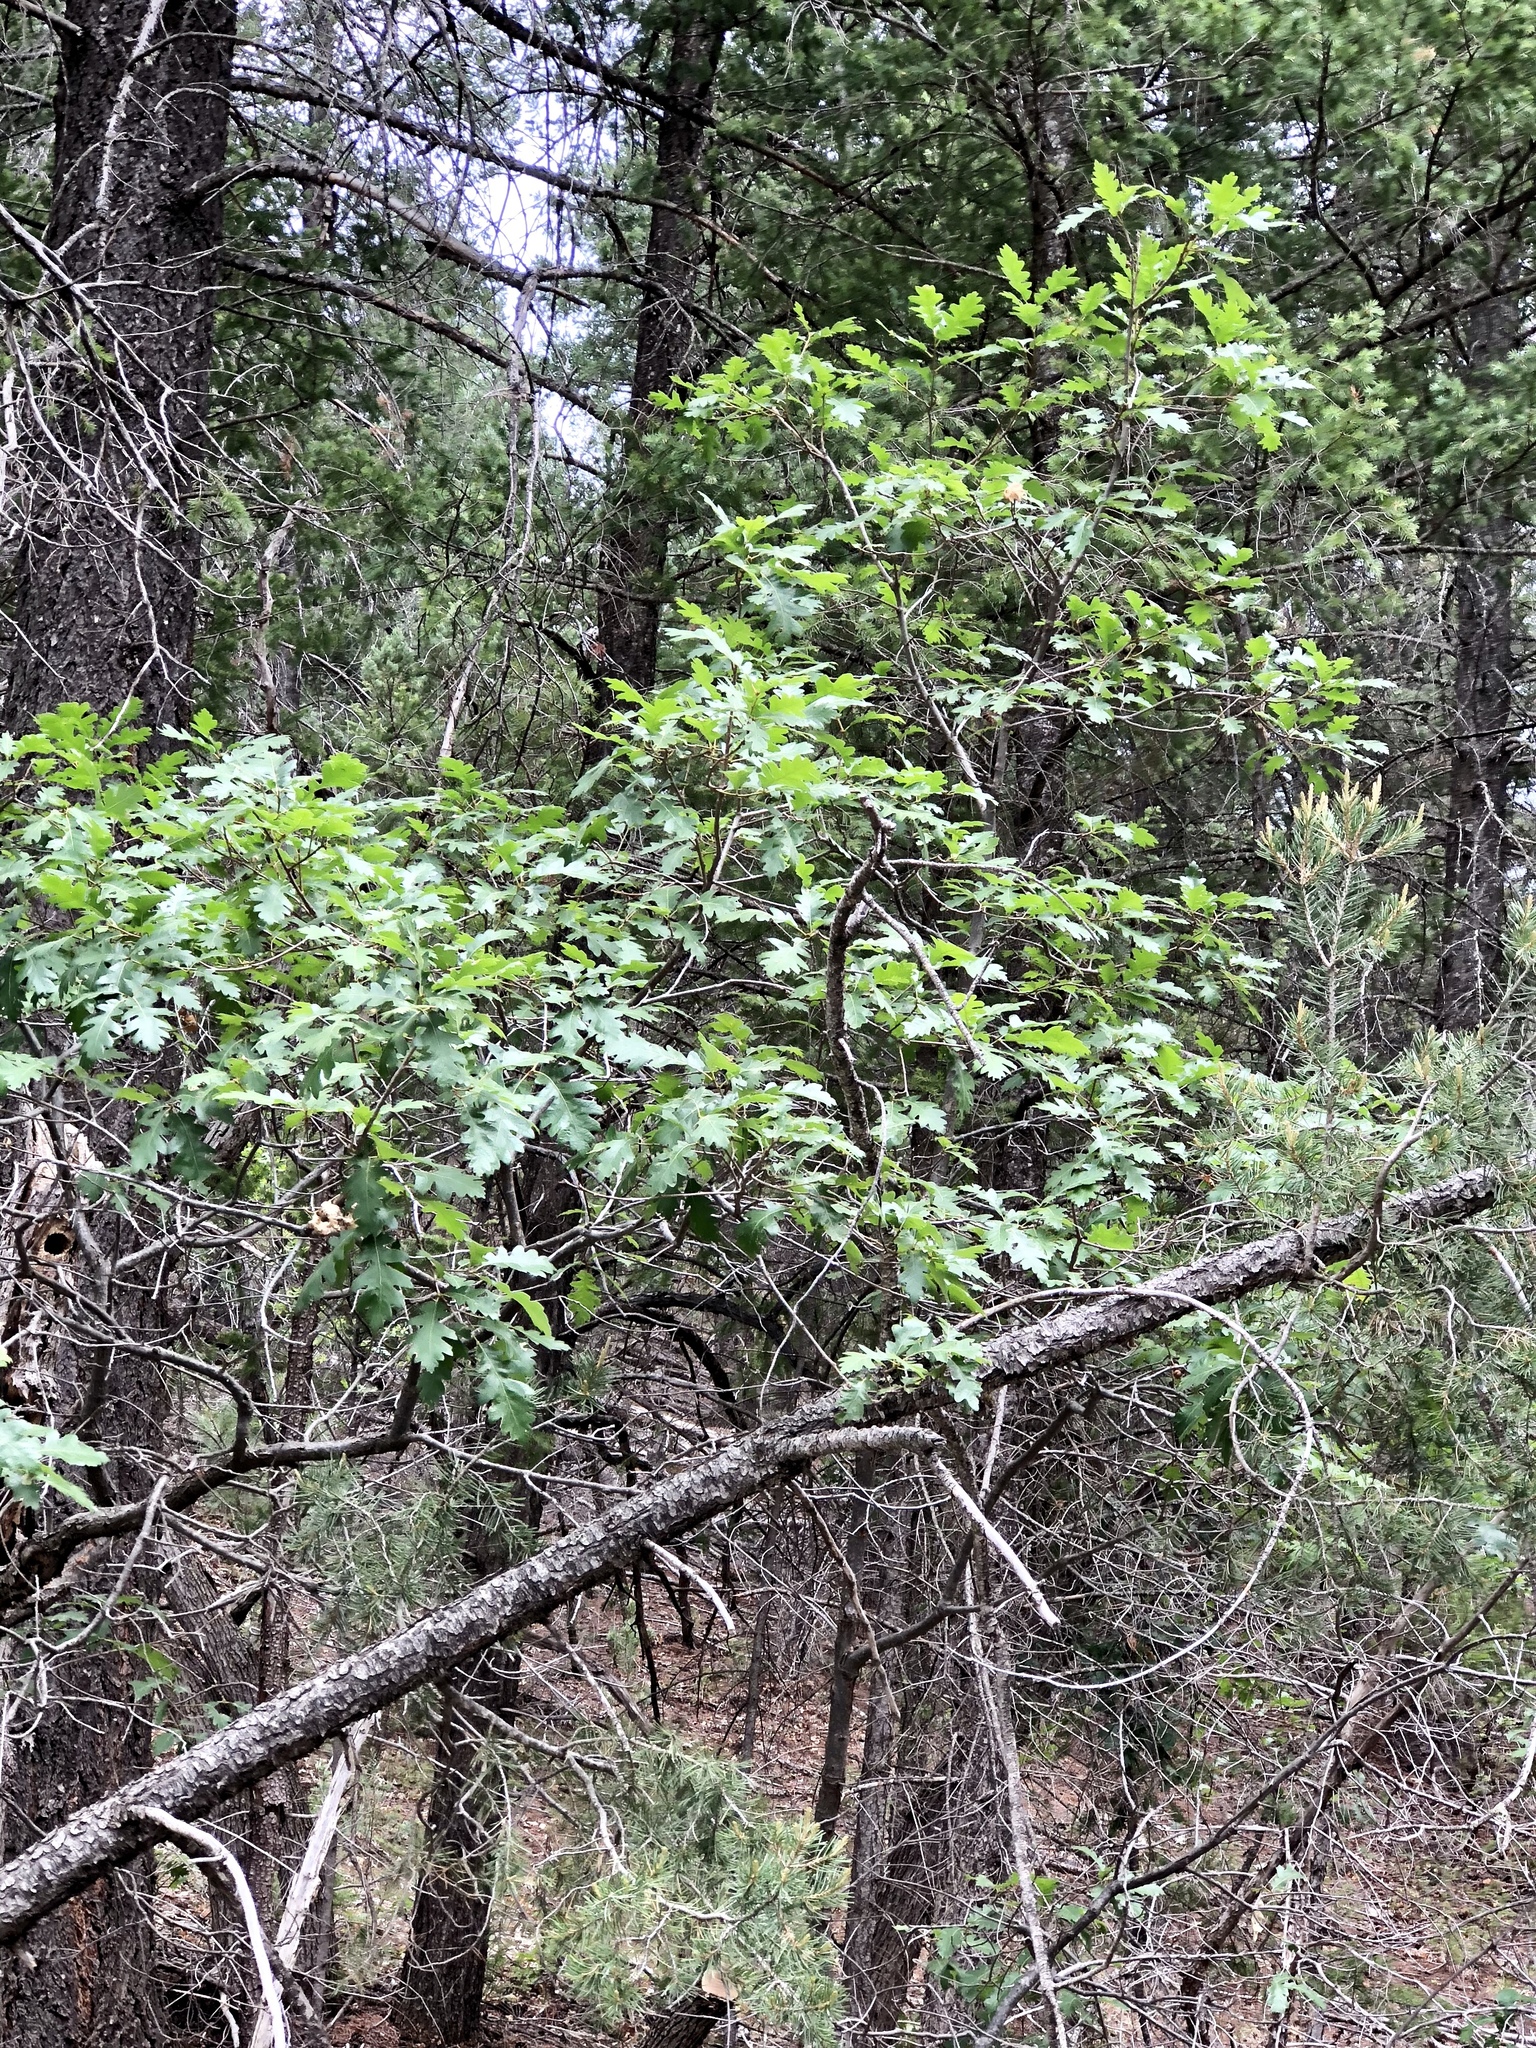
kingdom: Plantae
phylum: Tracheophyta
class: Magnoliopsida
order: Fagales
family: Fagaceae
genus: Quercus
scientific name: Quercus gambelii
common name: Gambel oak
